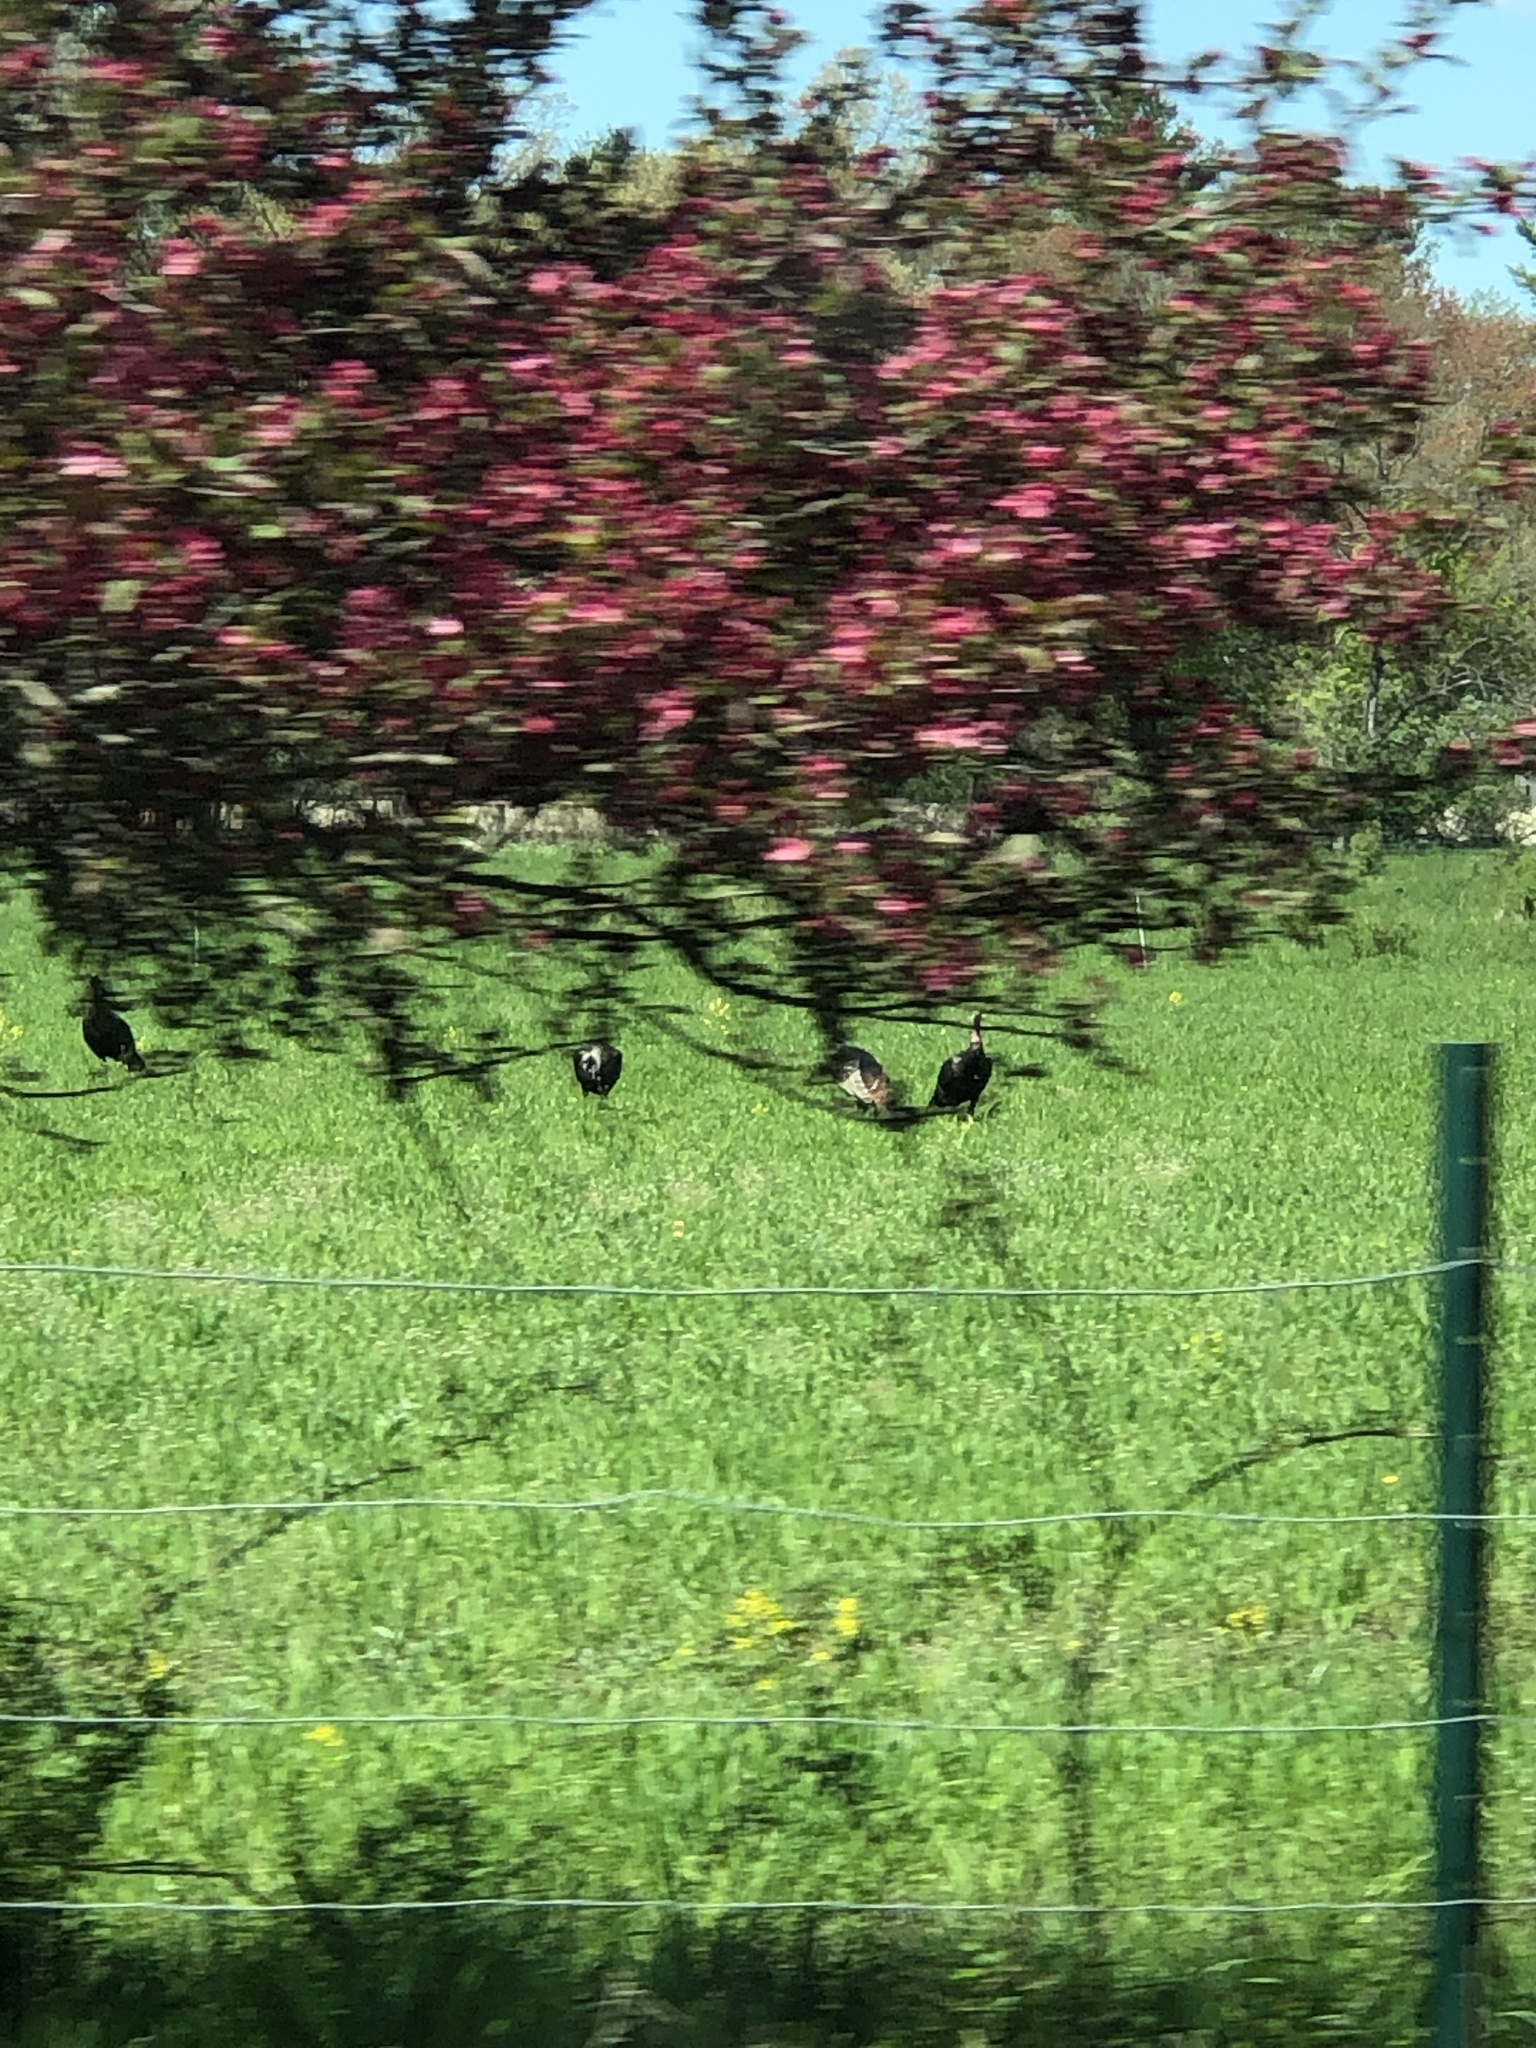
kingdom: Animalia
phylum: Chordata
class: Aves
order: Galliformes
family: Phasianidae
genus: Meleagris
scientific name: Meleagris gallopavo
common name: Wild turkey
